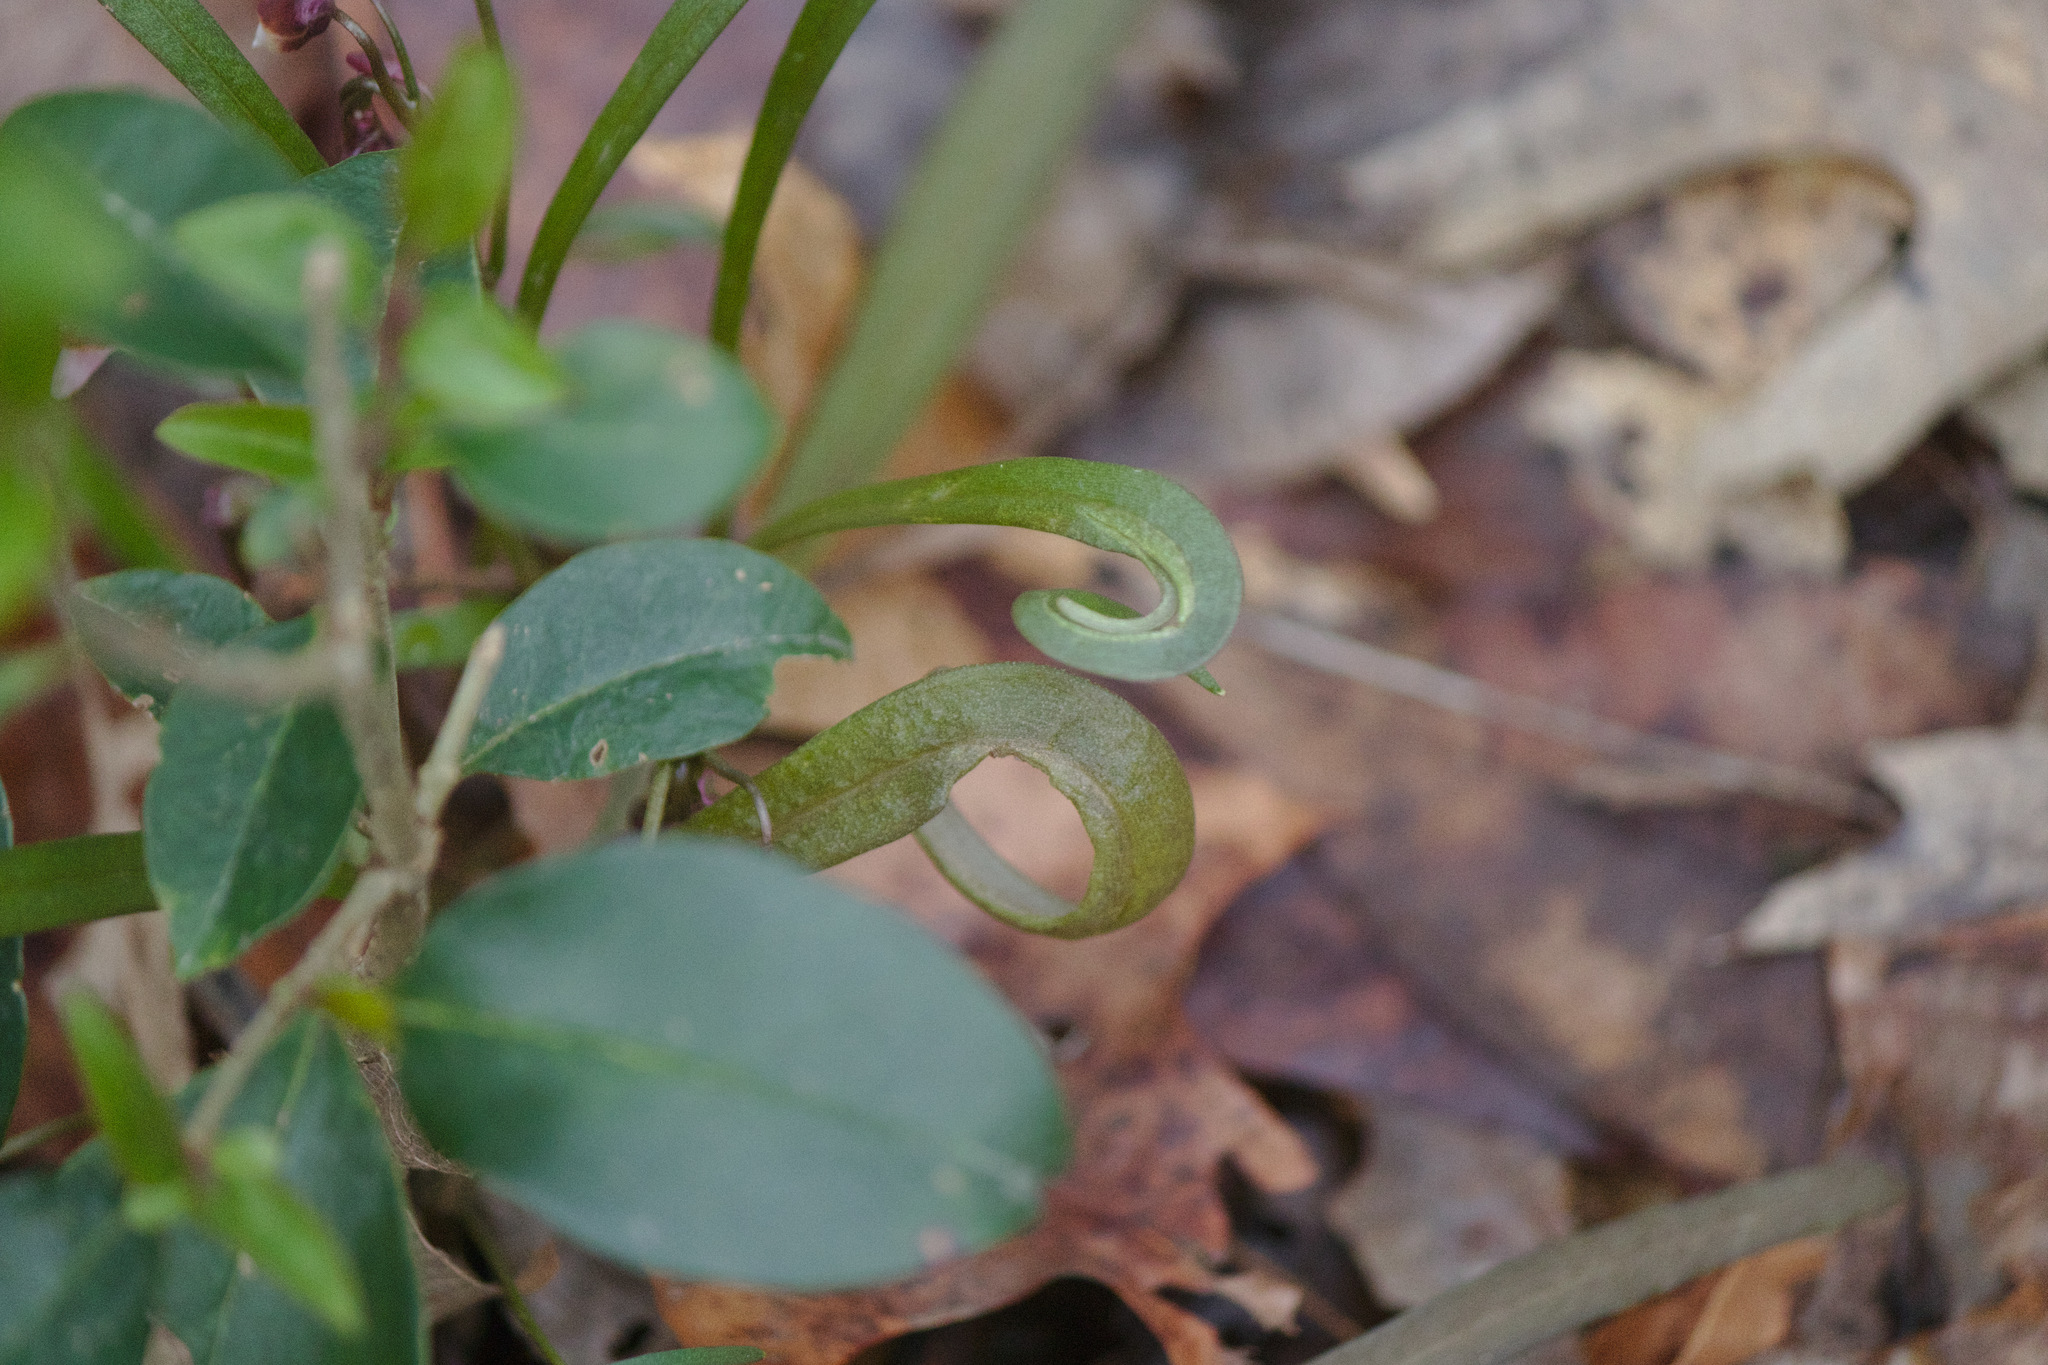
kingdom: Plantae
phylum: Tracheophyta
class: Magnoliopsida
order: Caryophyllales
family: Montiaceae
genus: Claytonia
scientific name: Claytonia virginica
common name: Virginia springbeauty
